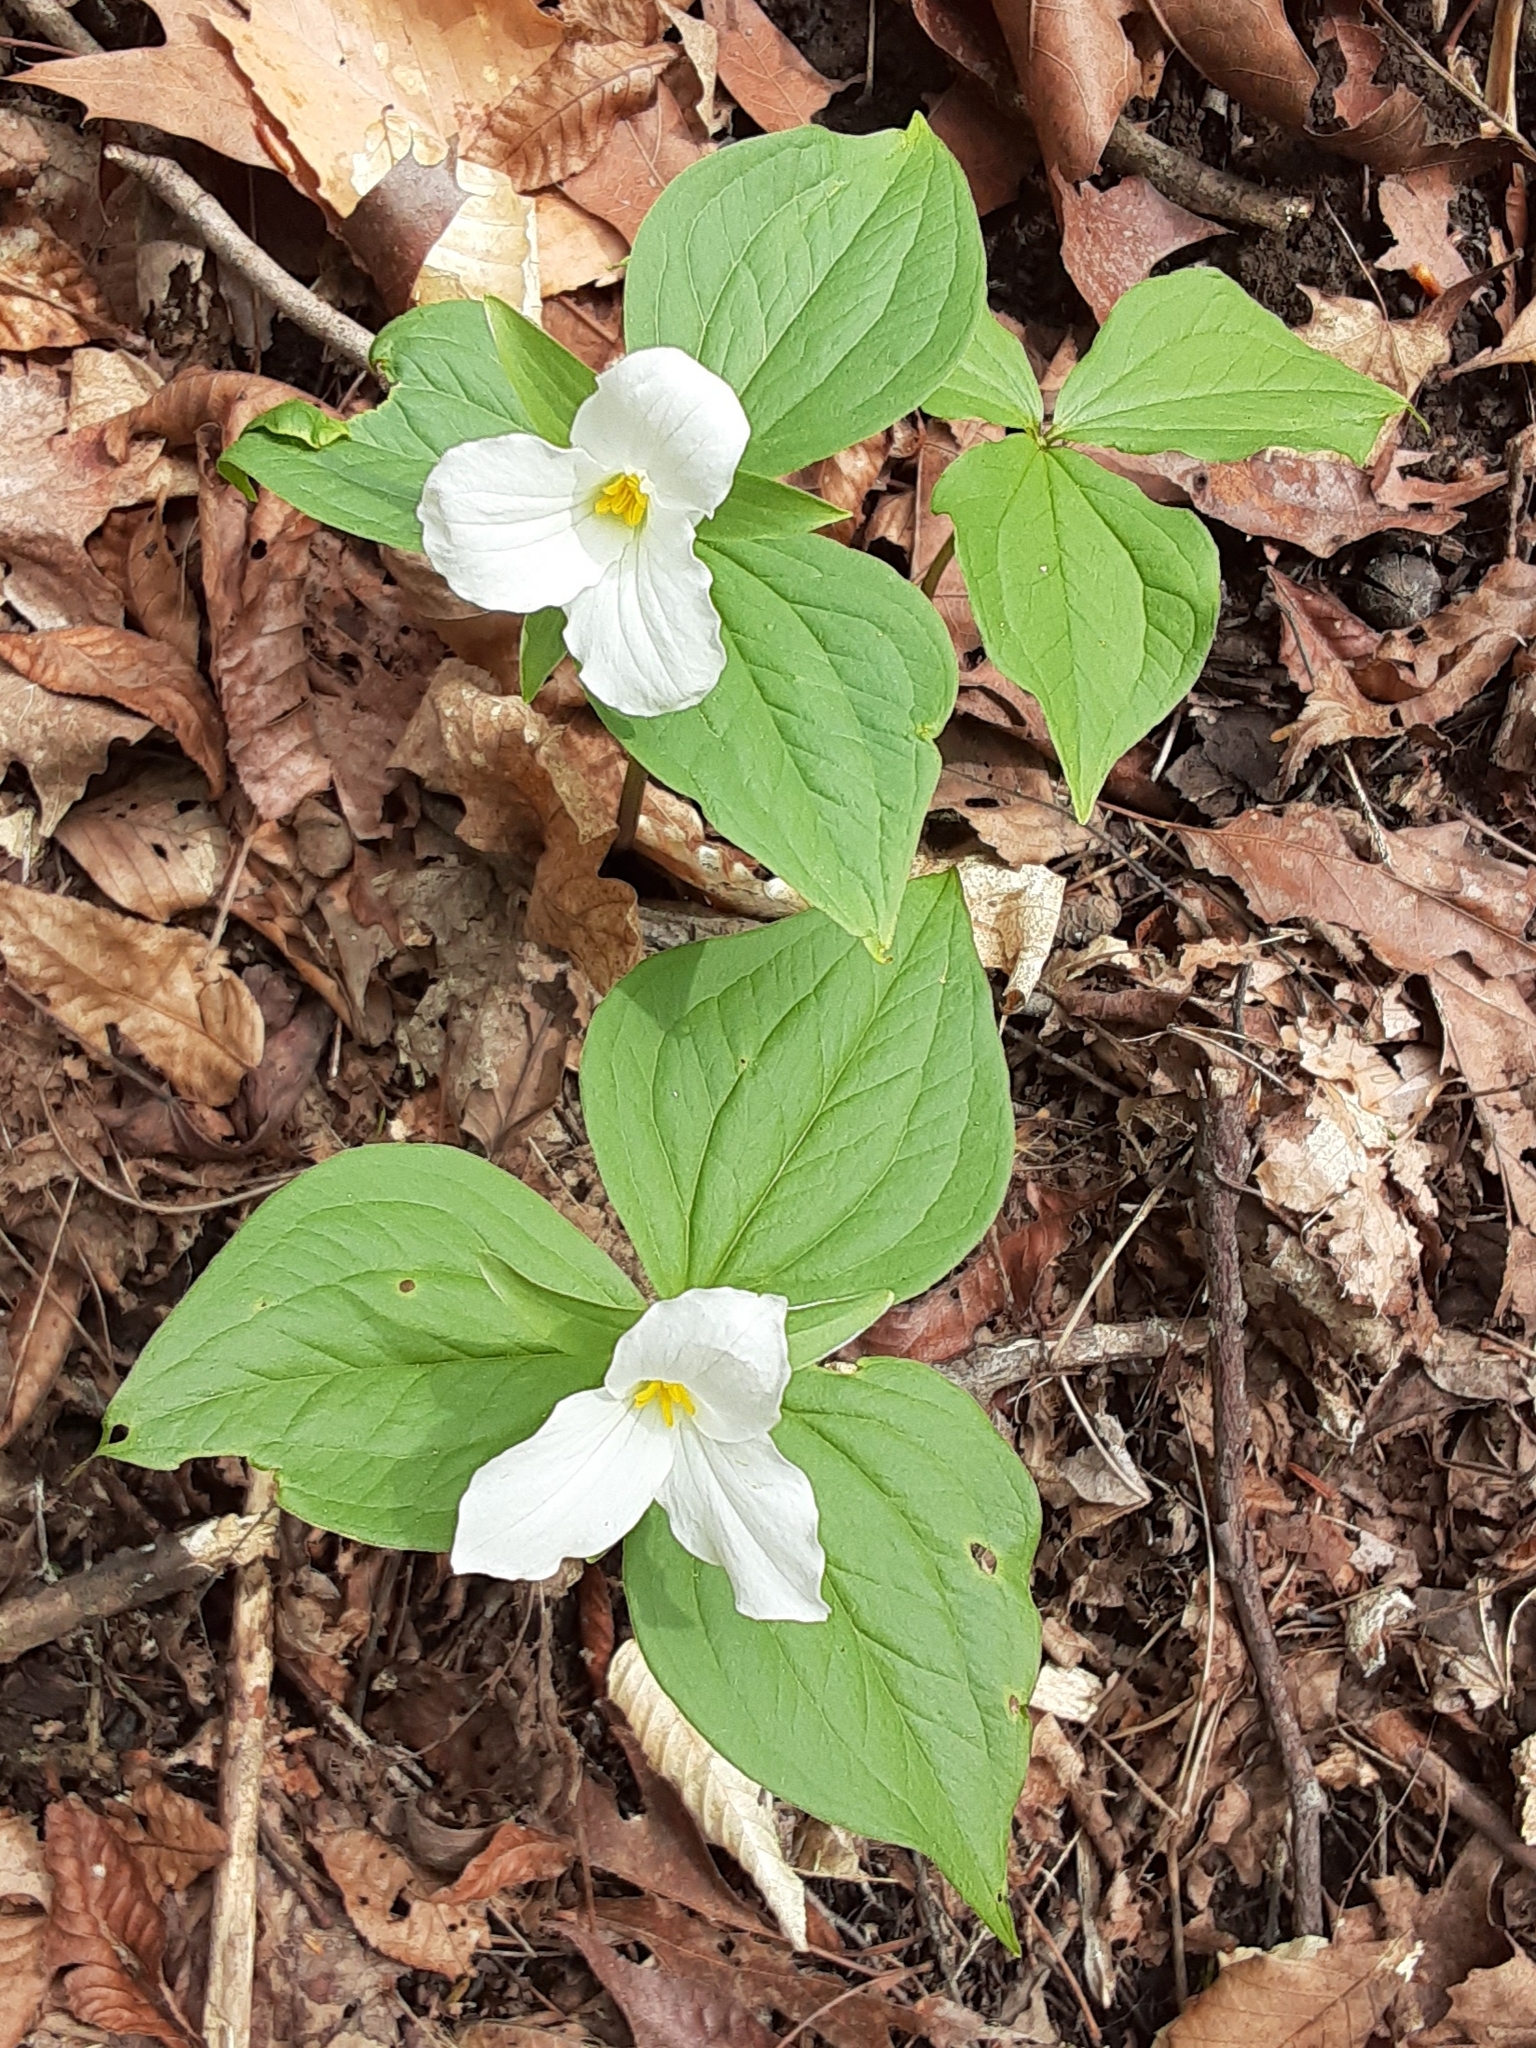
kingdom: Plantae
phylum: Tracheophyta
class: Liliopsida
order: Liliales
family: Melanthiaceae
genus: Trillium
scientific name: Trillium grandiflorum
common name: Great white trillium
